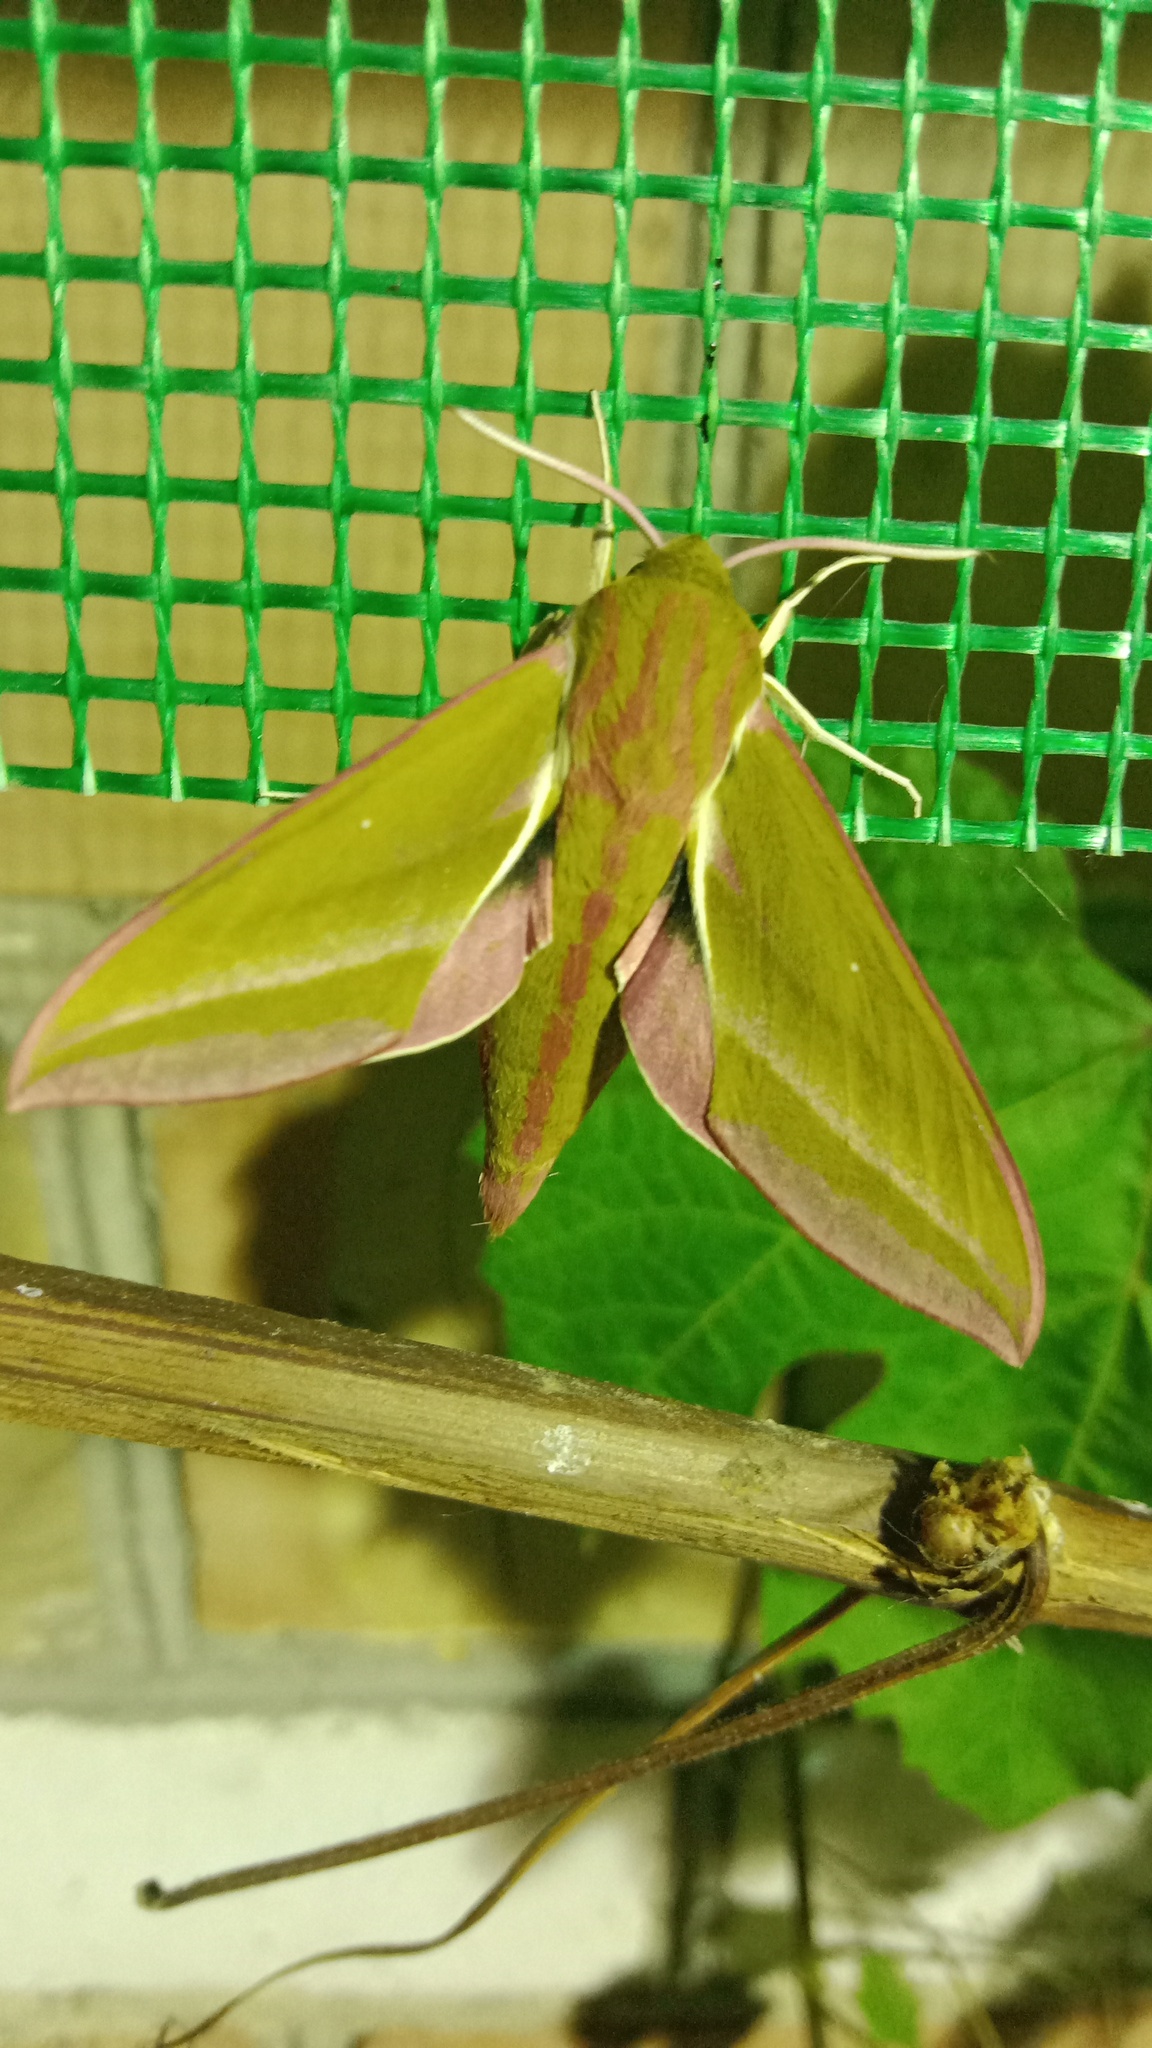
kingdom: Animalia
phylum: Arthropoda
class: Insecta
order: Lepidoptera
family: Sphingidae
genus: Deilephila
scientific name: Deilephila elpenor
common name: Elephant hawk-moth
